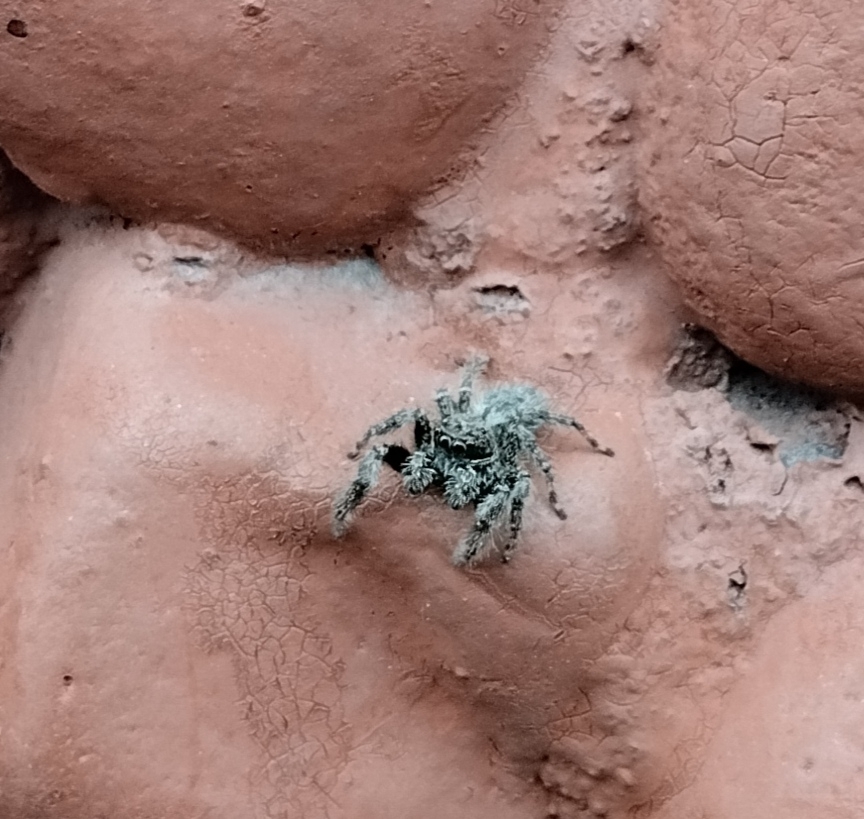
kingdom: Animalia
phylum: Arthropoda
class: Arachnida
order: Araneae
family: Salticidae
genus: Mexigonus
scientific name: Mexigonus
